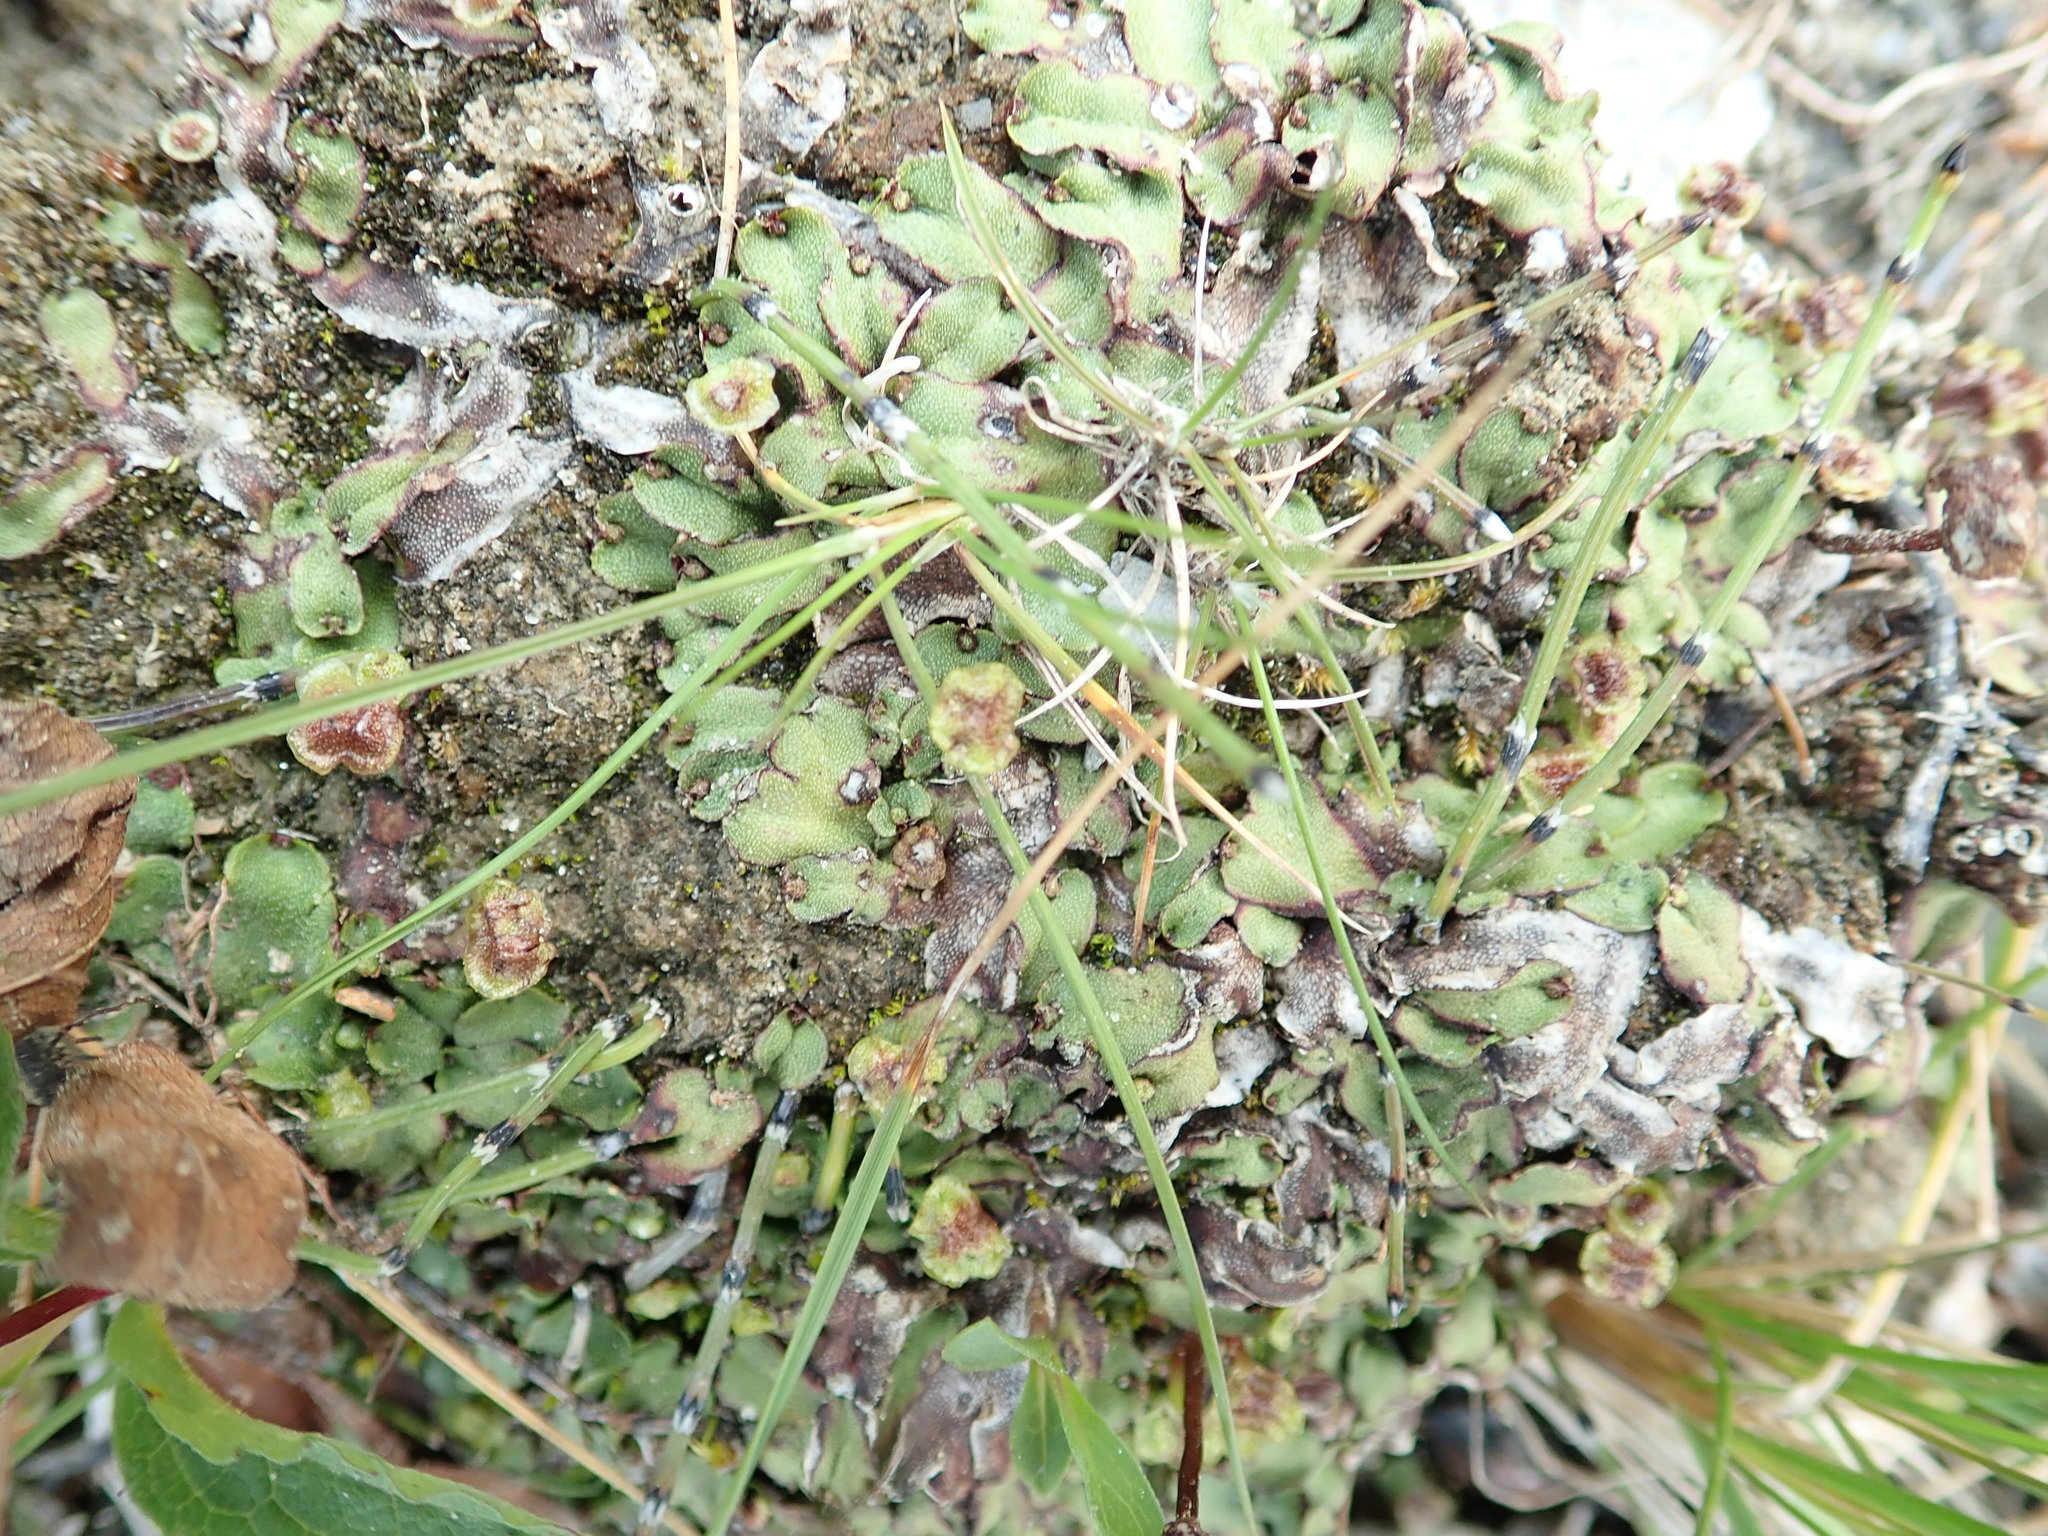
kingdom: Plantae
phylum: Marchantiophyta
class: Marchantiopsida
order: Marchantiales
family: Marchantiaceae
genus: Marchantia
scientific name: Marchantia polymorpha
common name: Common liverwort
